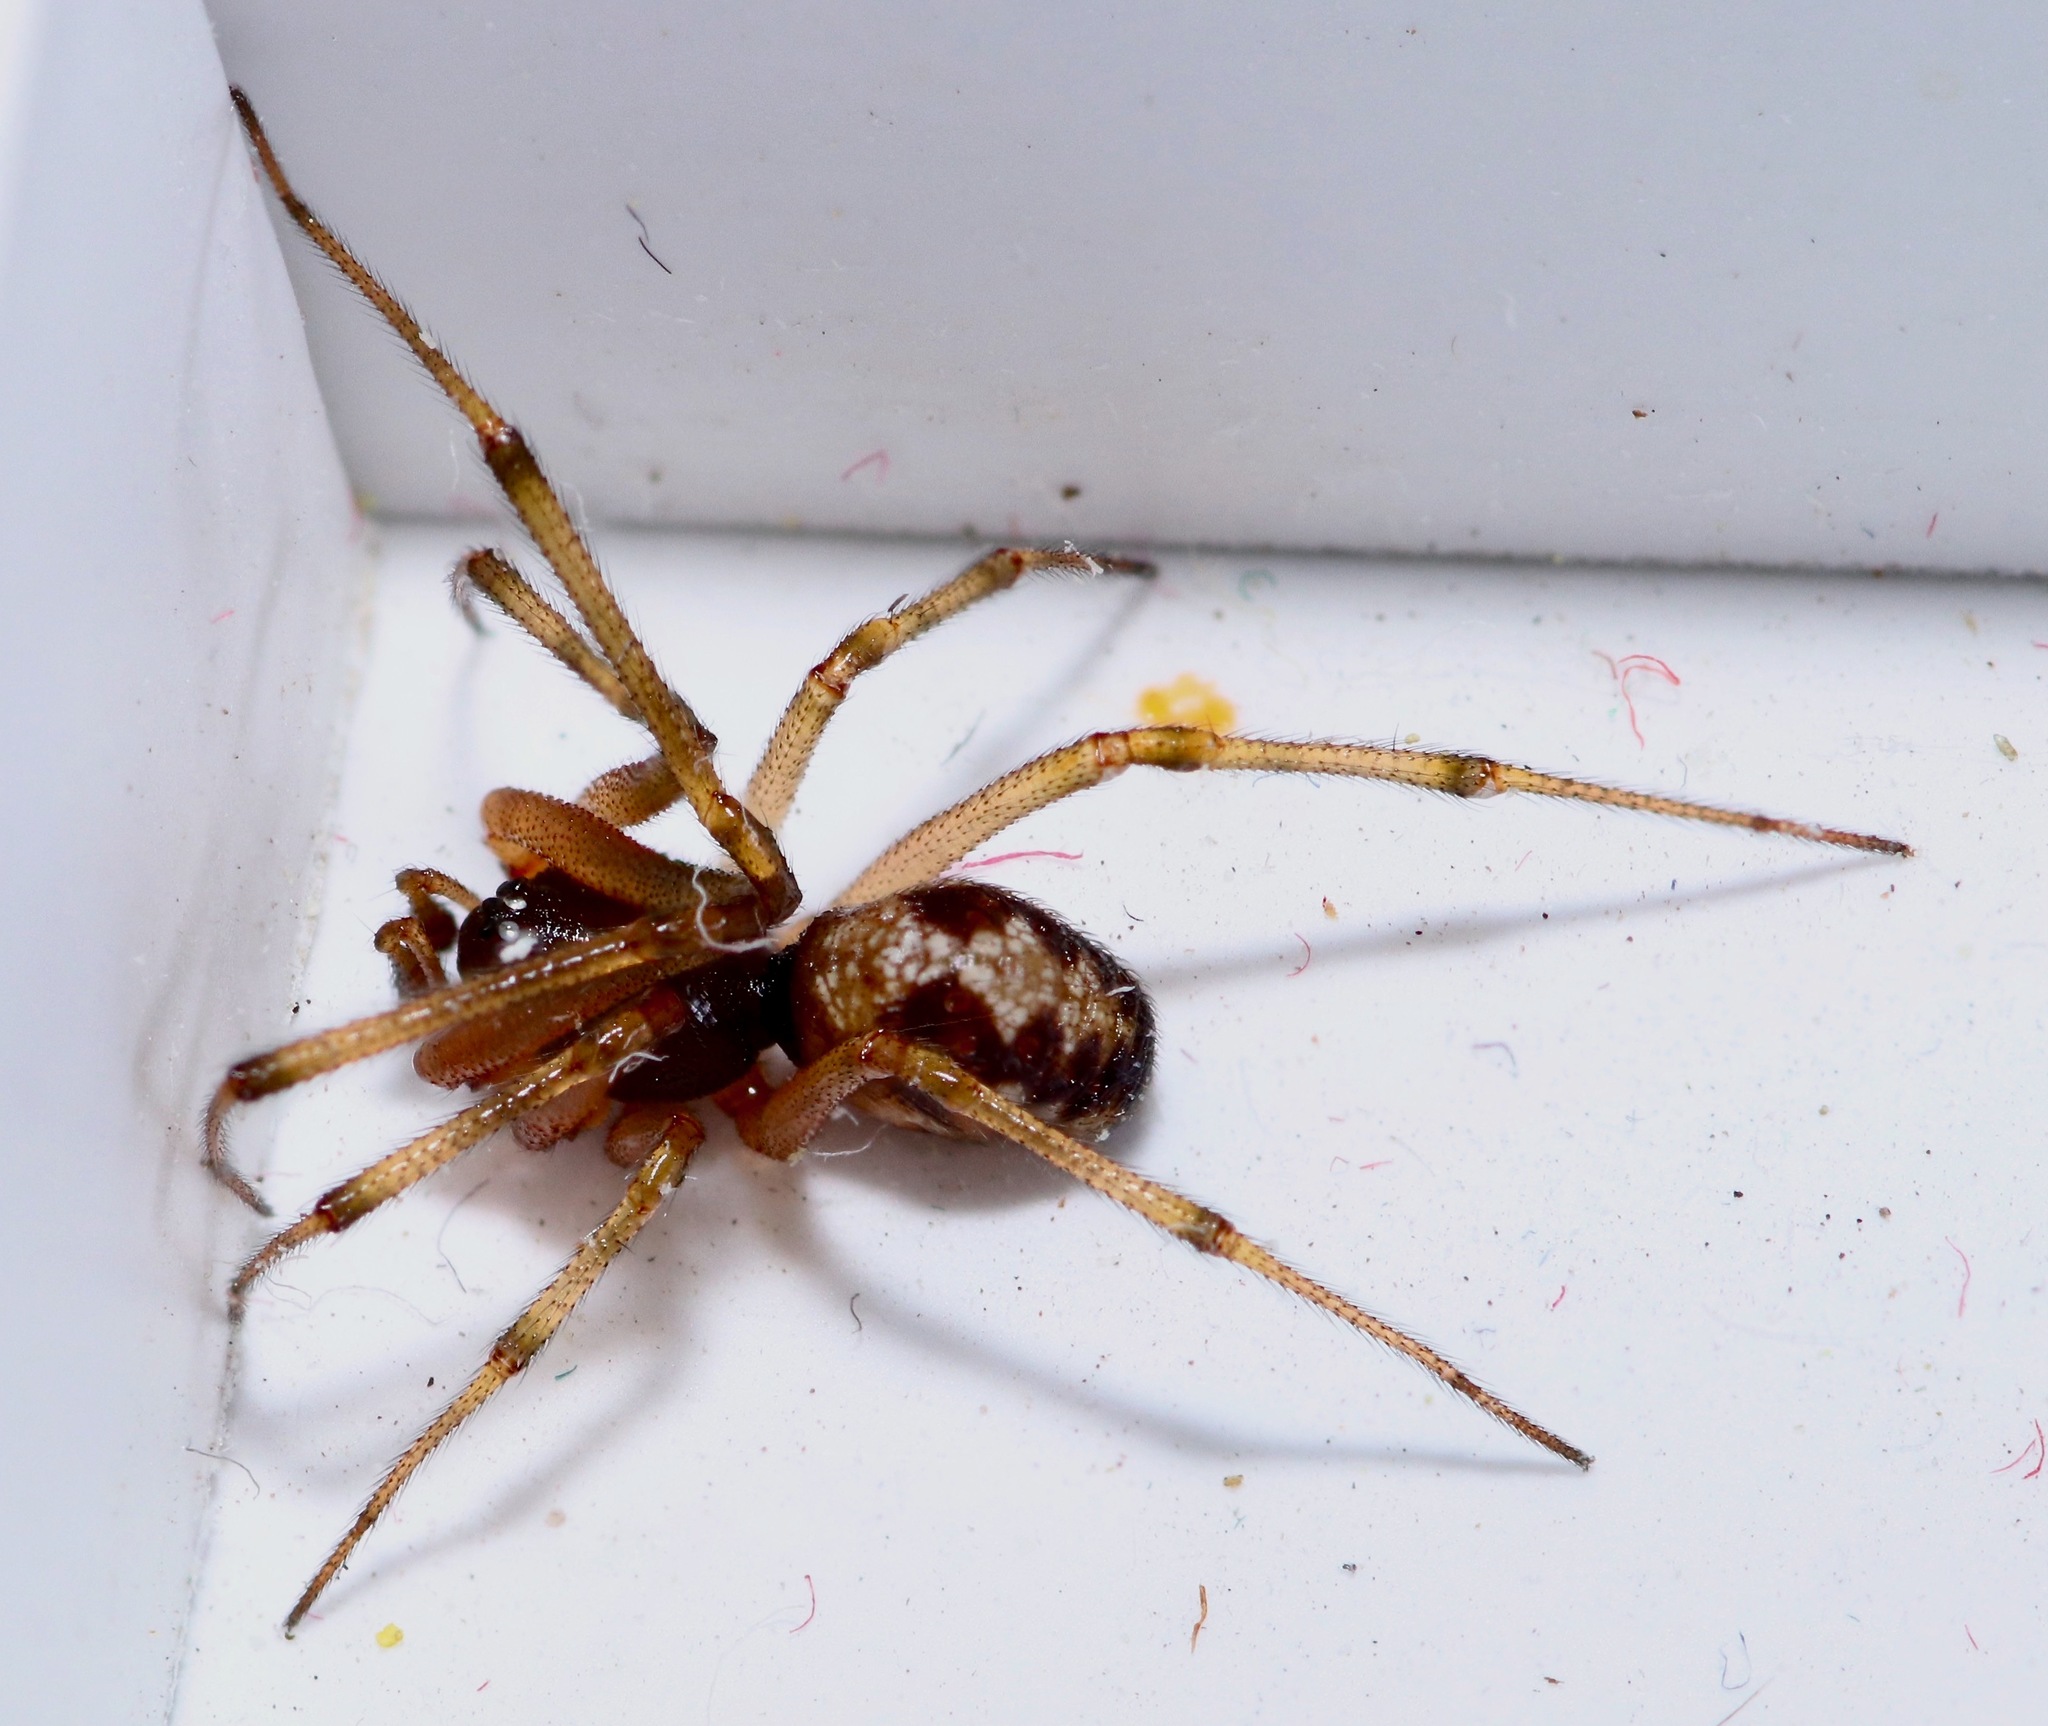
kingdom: Animalia
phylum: Arthropoda
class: Arachnida
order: Araneae
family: Theridiidae
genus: Steatoda
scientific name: Steatoda triangulosa
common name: Triangulate bud spider
